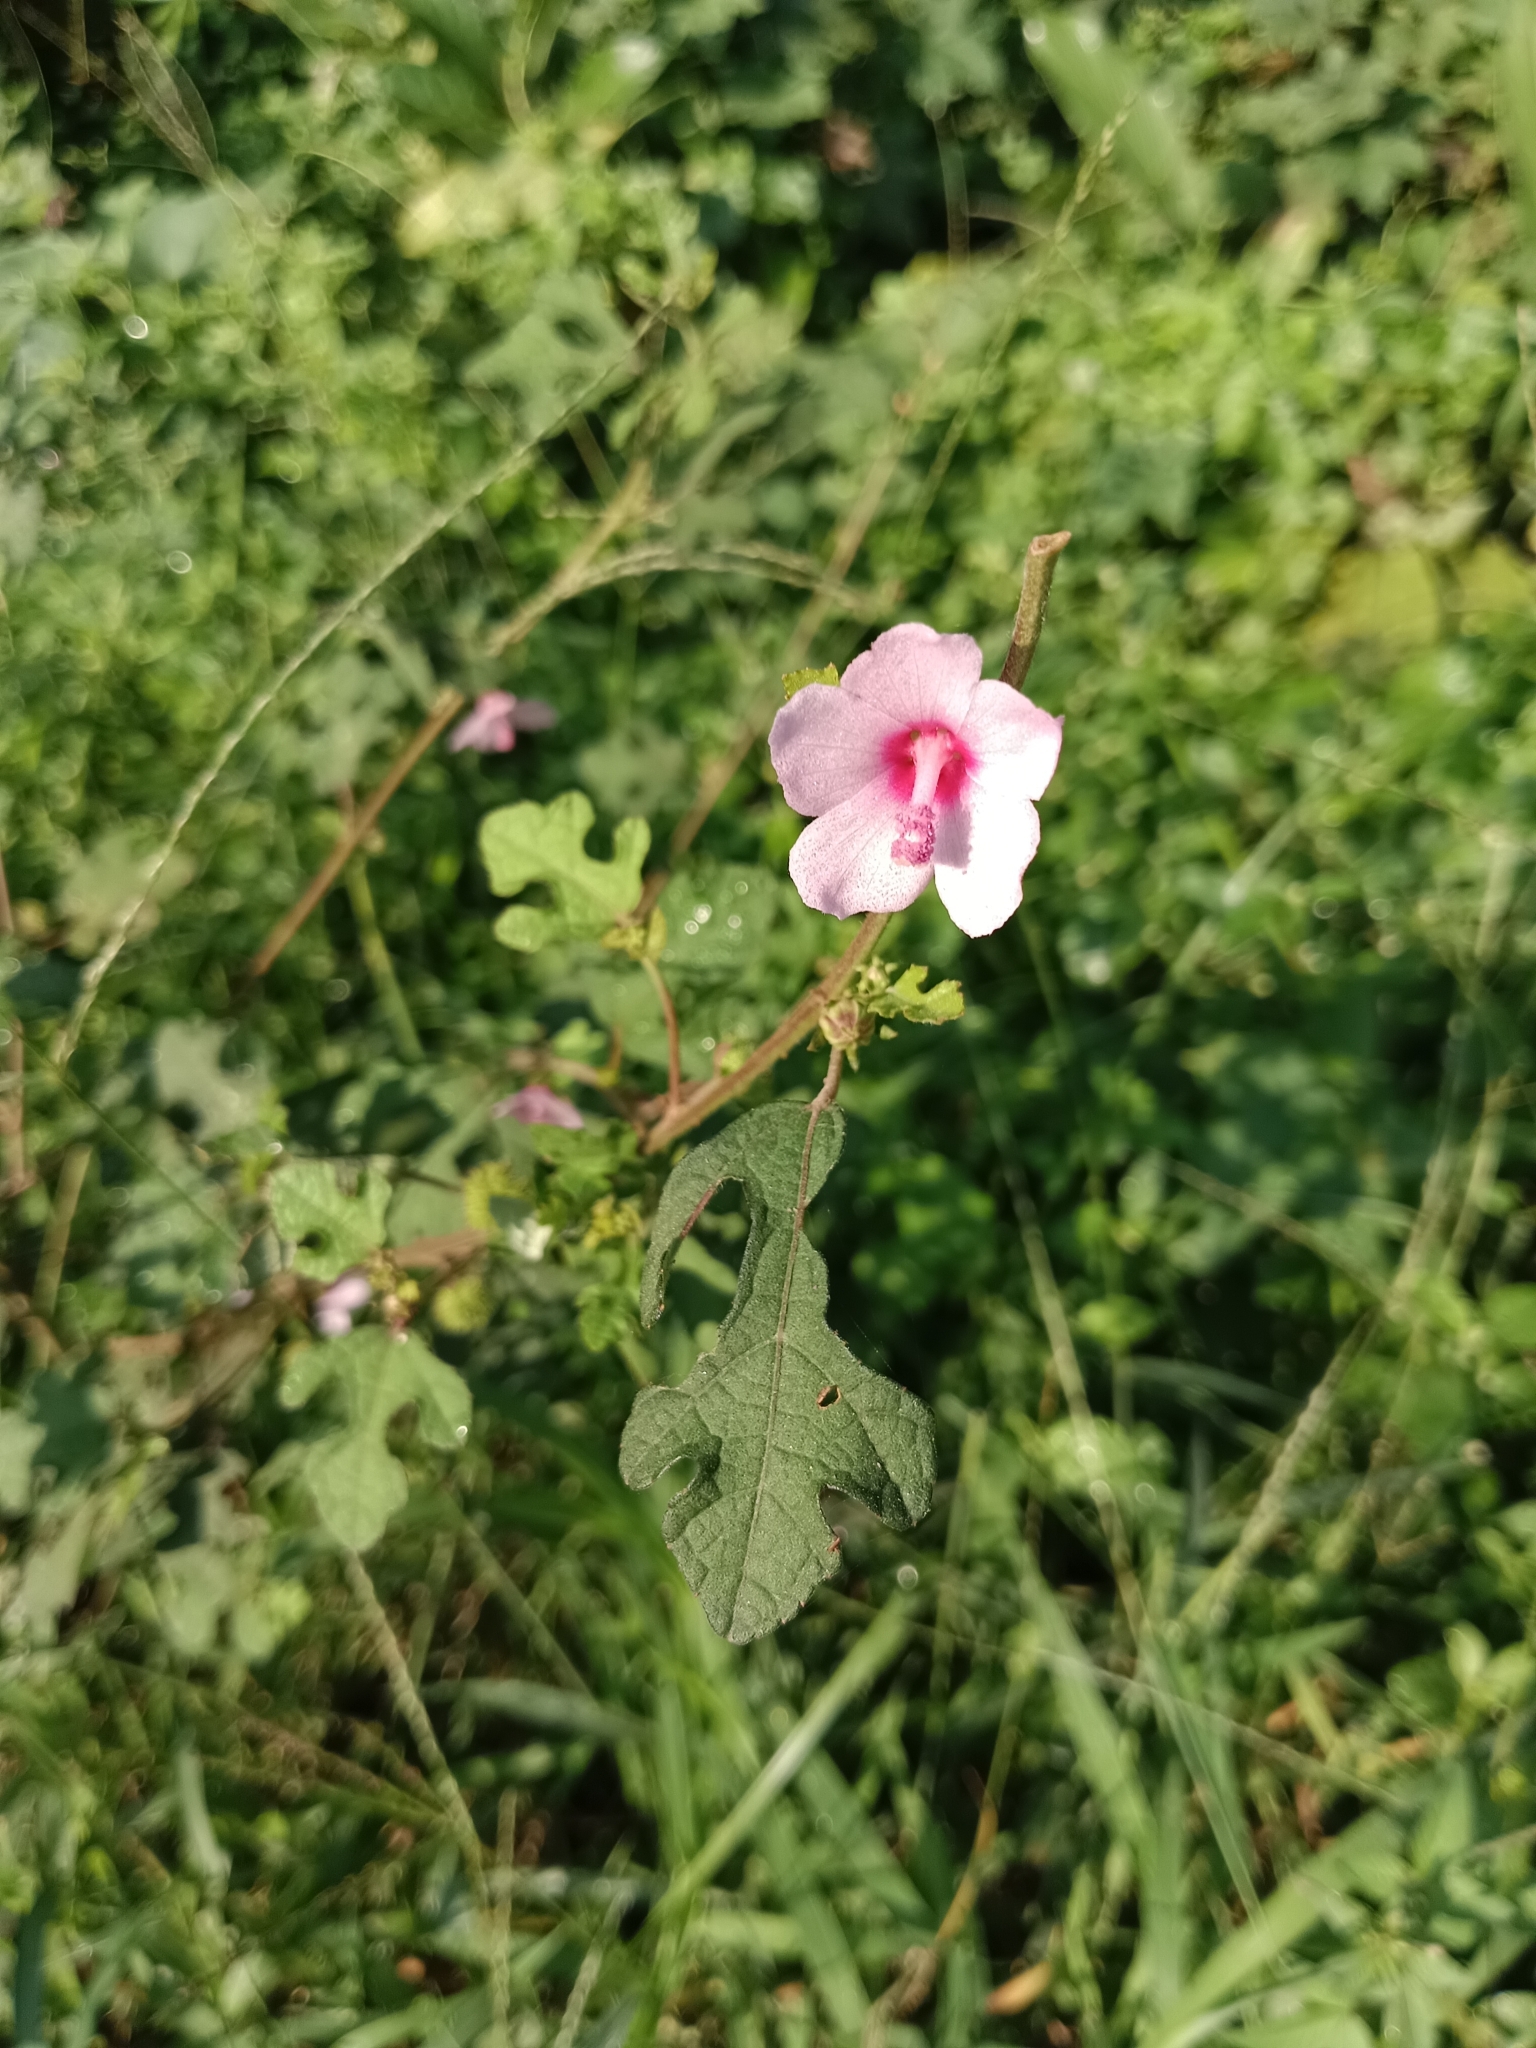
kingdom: Plantae
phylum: Tracheophyta
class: Magnoliopsida
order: Malvales
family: Malvaceae
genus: Urena
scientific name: Urena procumbens
